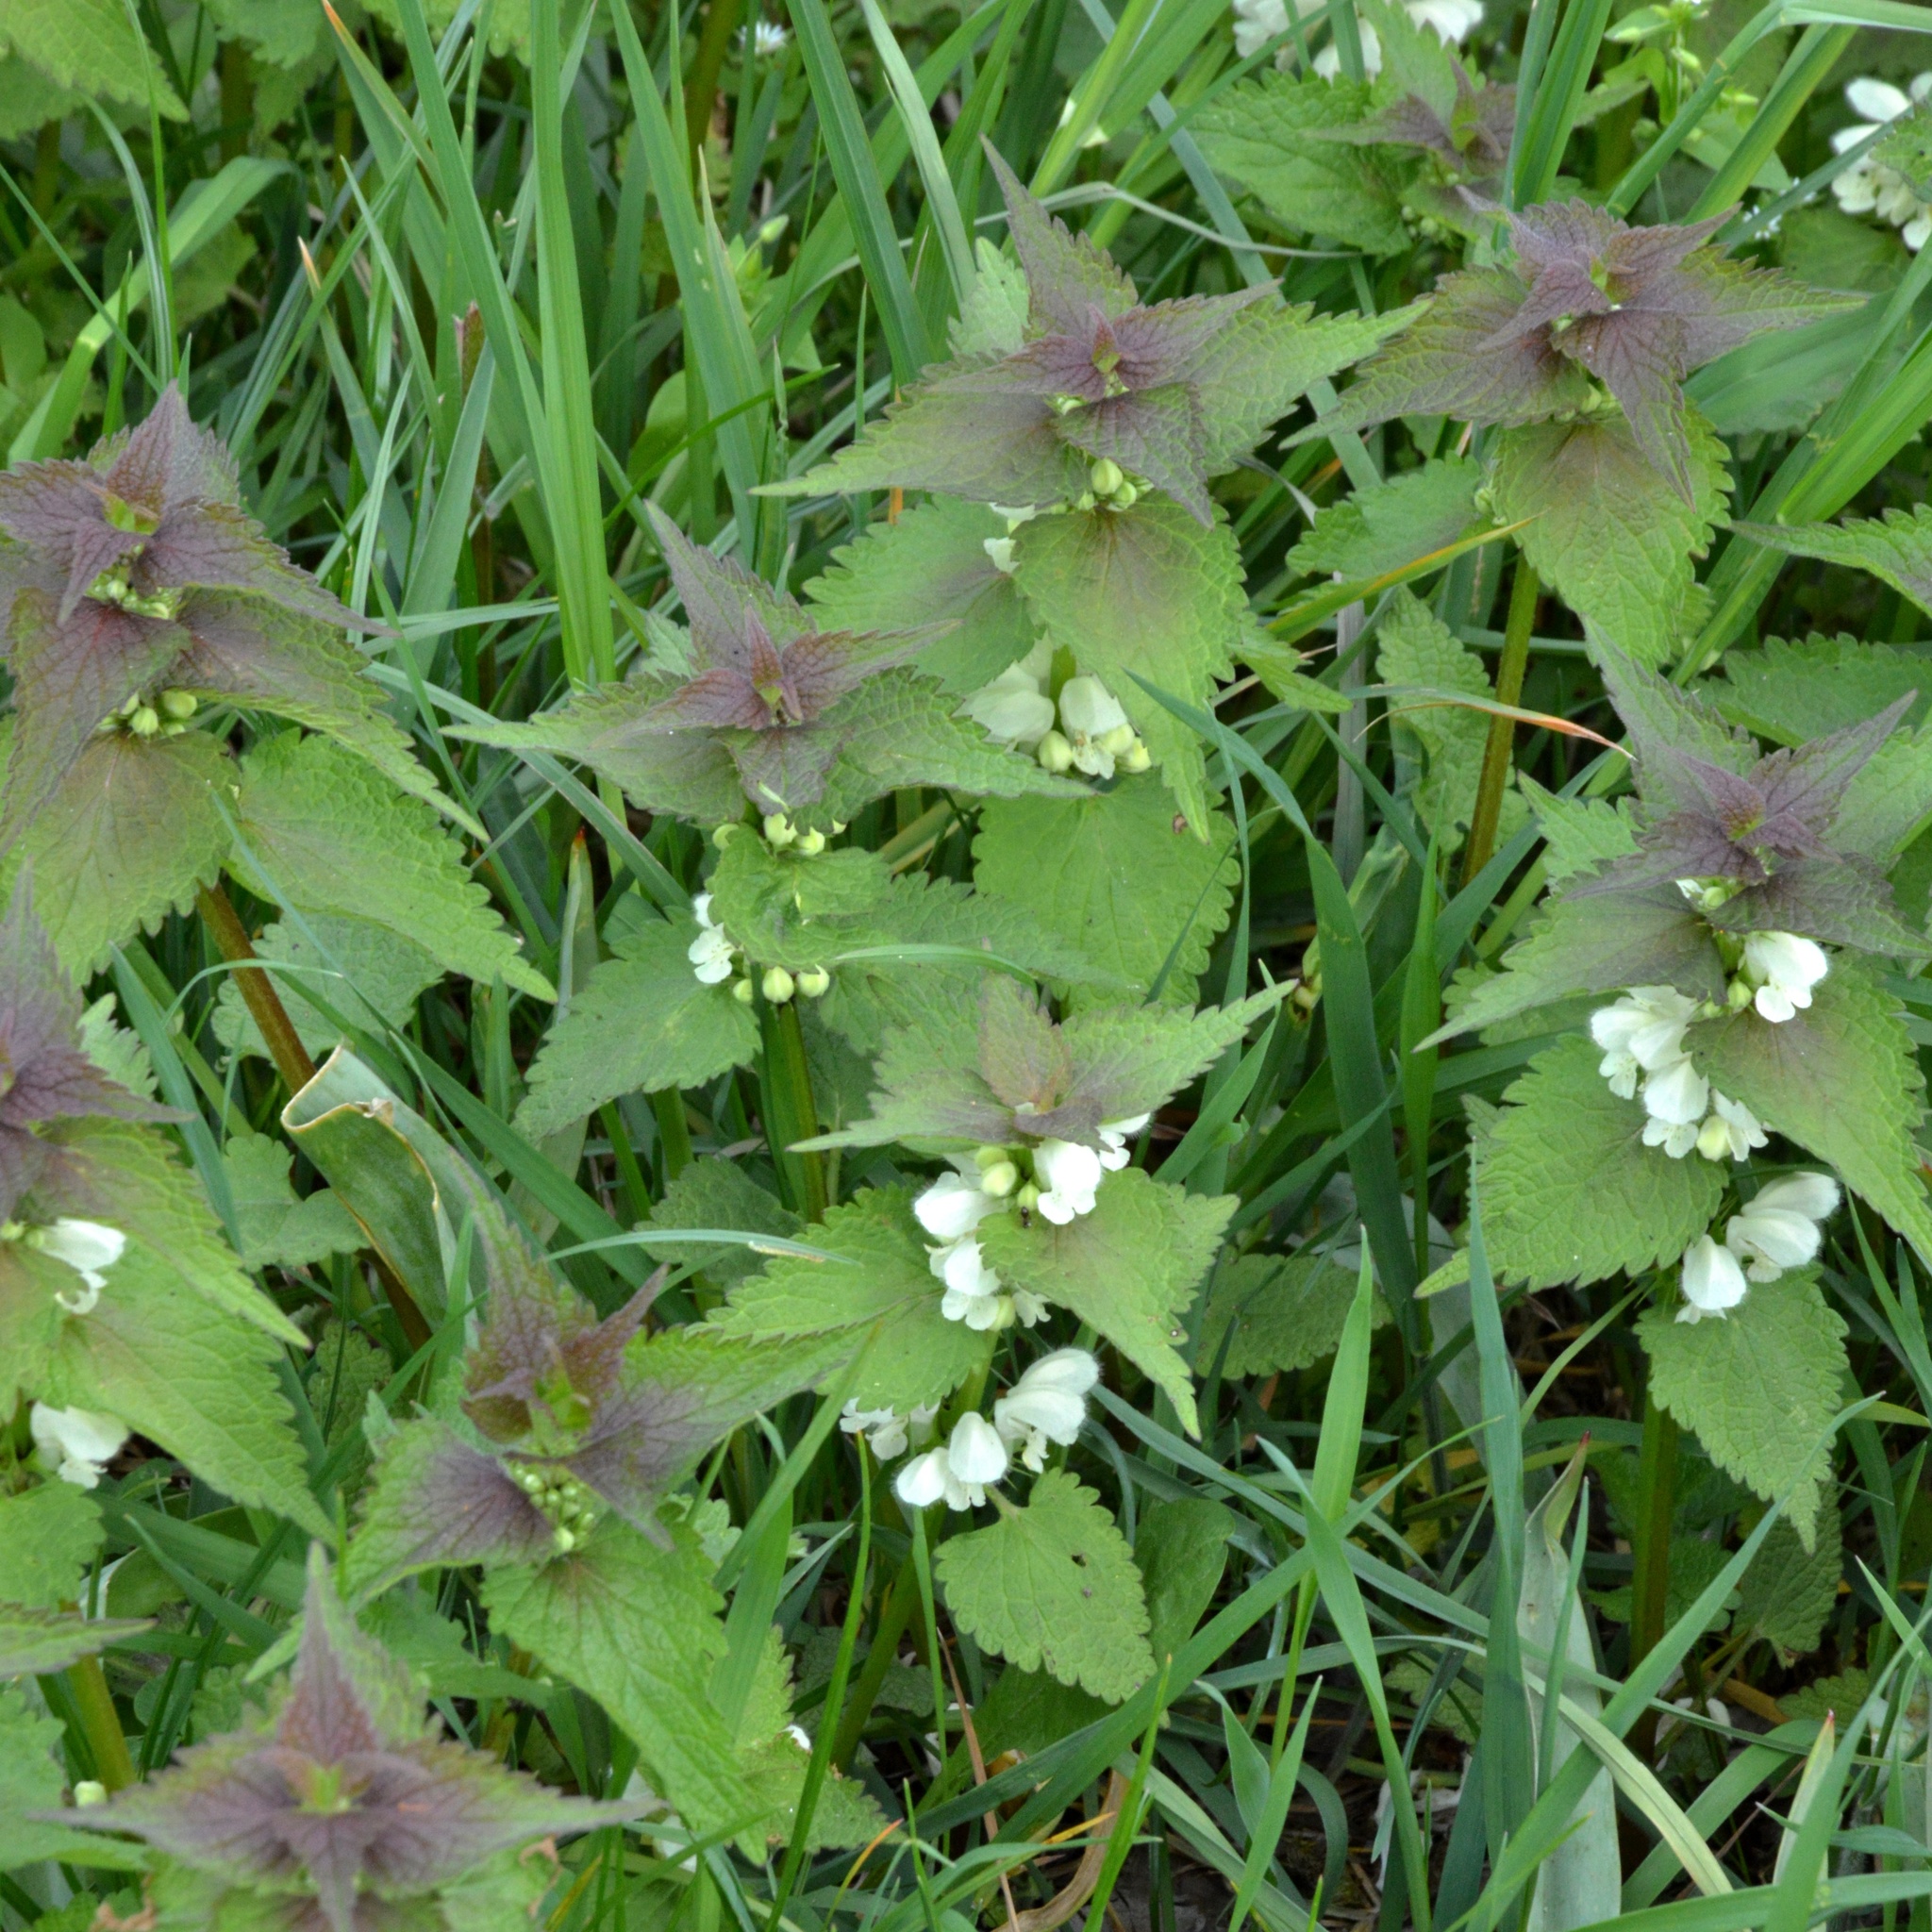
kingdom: Plantae
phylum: Tracheophyta
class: Magnoliopsida
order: Lamiales
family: Lamiaceae
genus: Lamium
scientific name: Lamium album
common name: White dead-nettle
